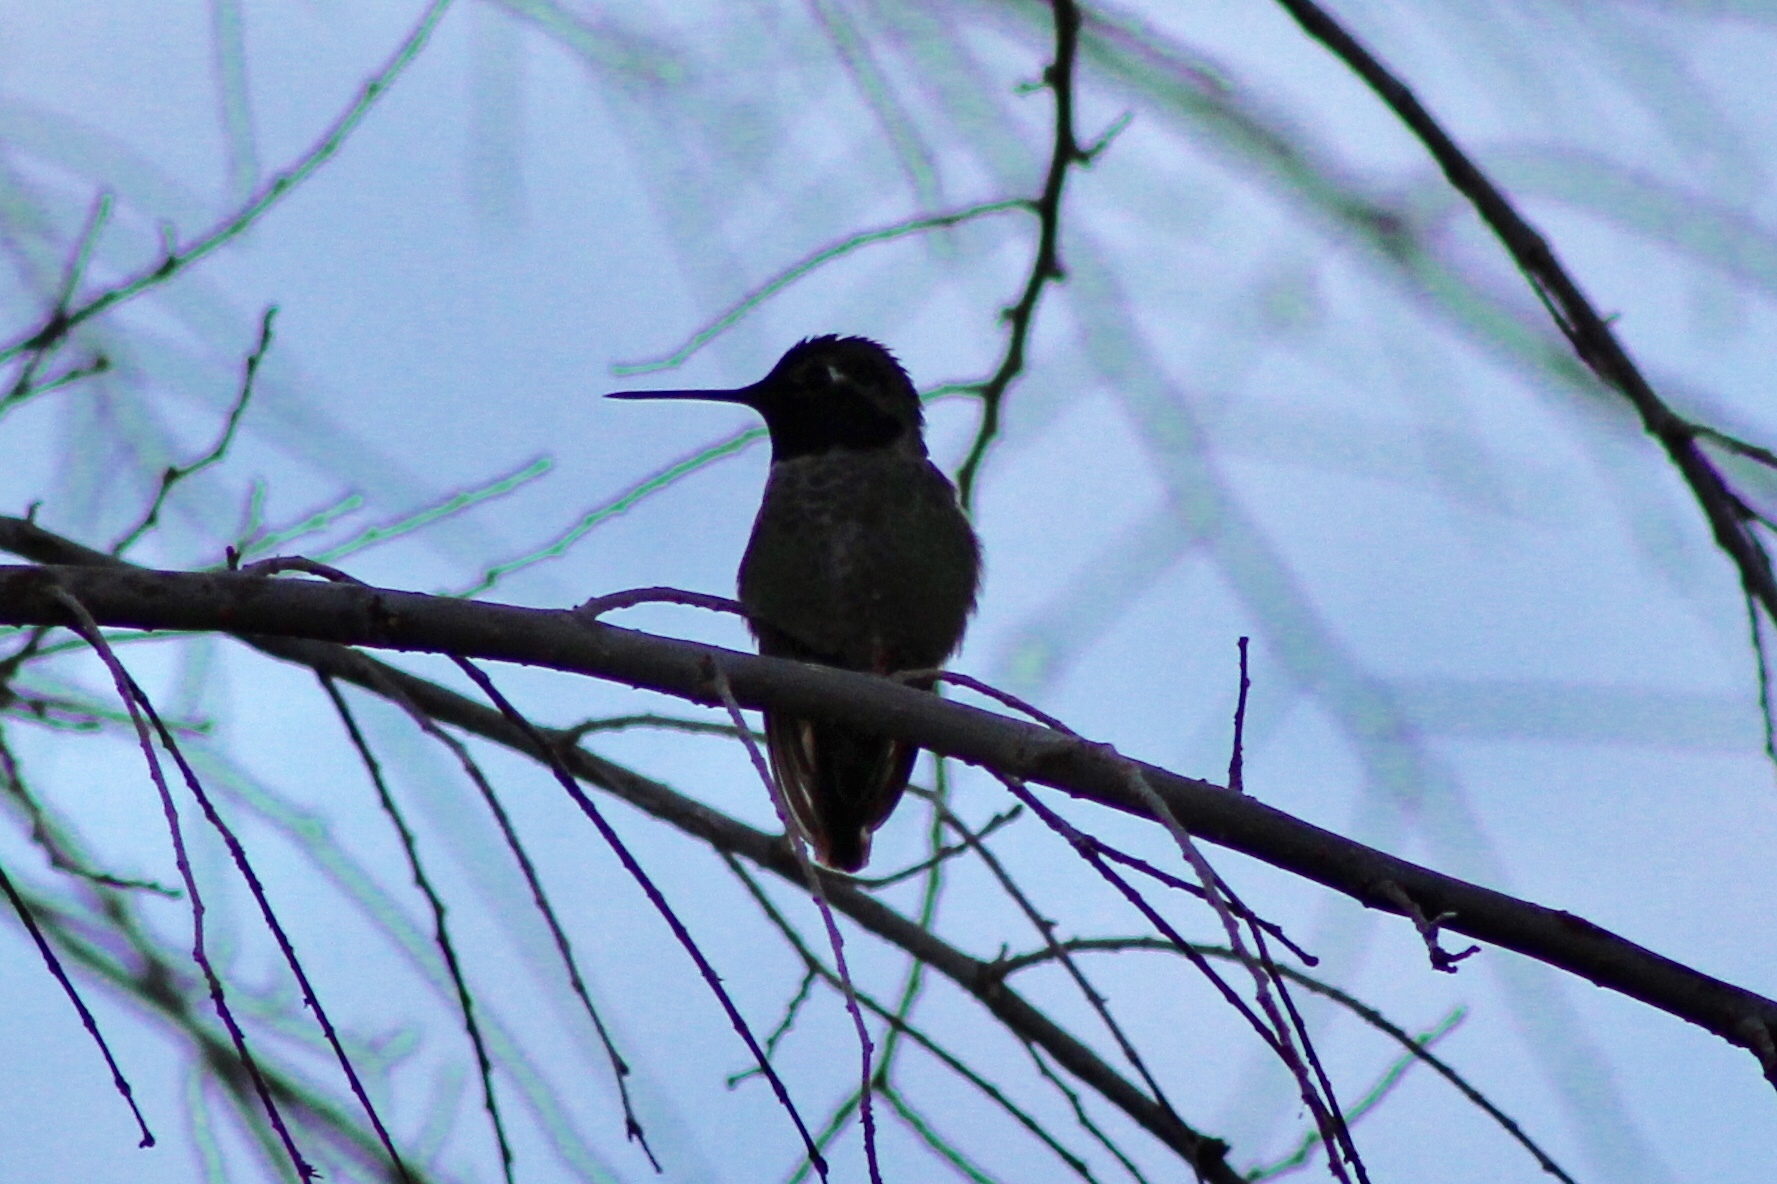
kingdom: Animalia
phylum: Chordata
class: Aves
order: Apodiformes
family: Trochilidae
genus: Calypte
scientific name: Calypte anna
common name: Anna's hummingbird
